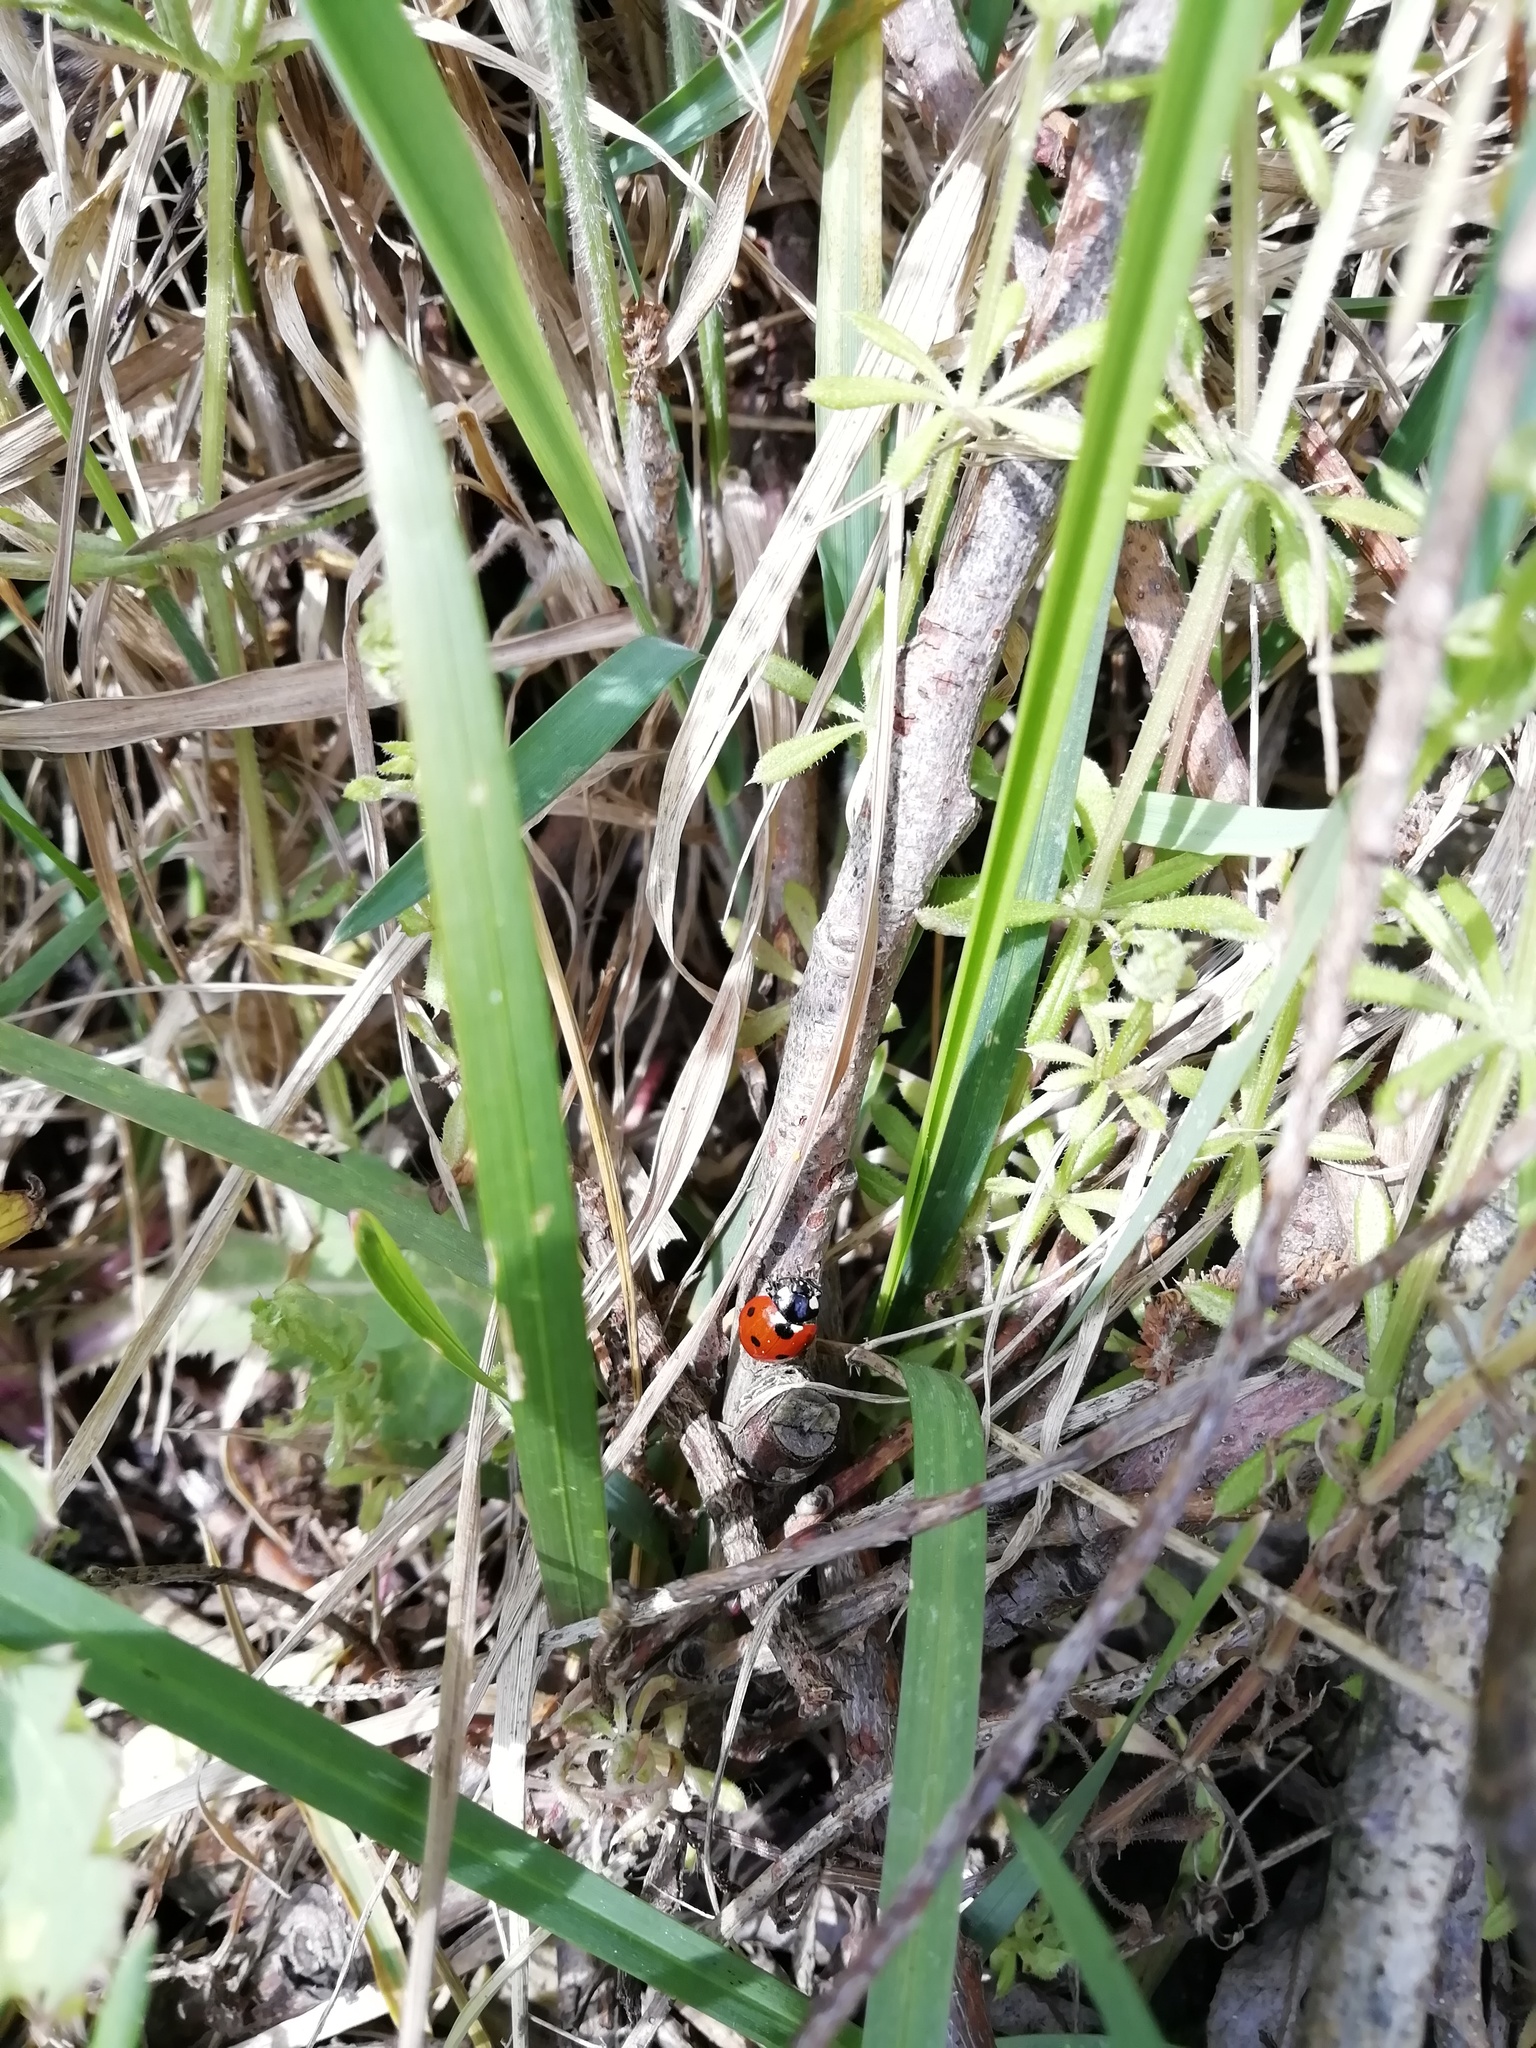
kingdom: Animalia
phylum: Arthropoda
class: Insecta
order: Coleoptera
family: Coccinellidae
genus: Coccinella
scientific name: Coccinella septempunctata
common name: Sevenspotted lady beetle
